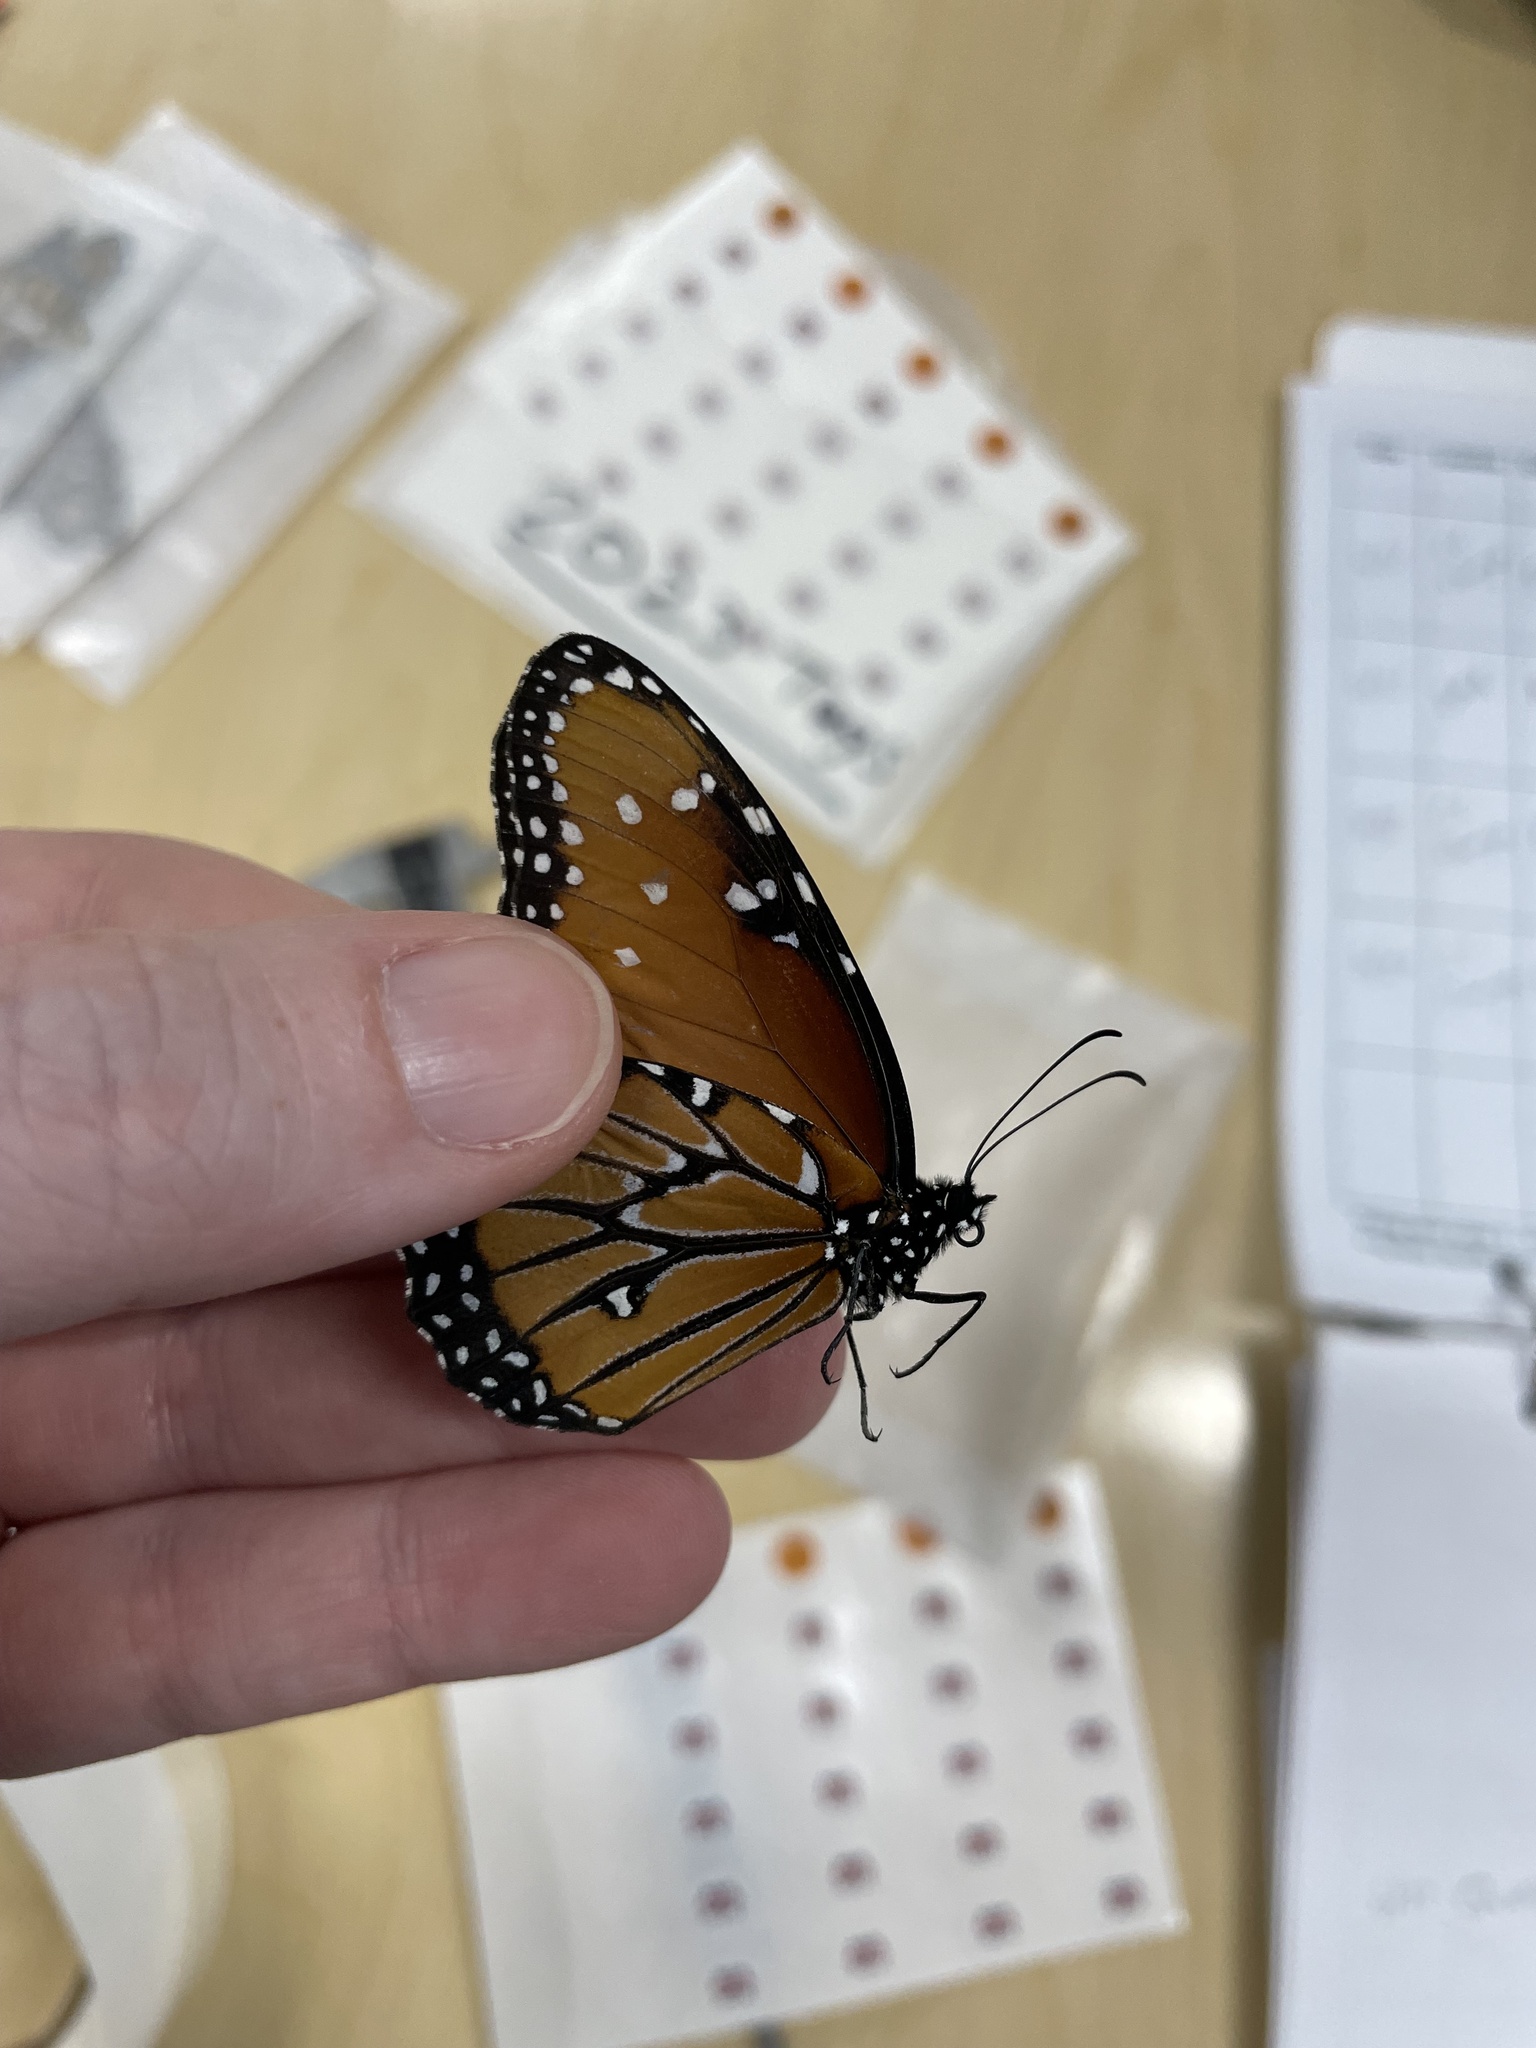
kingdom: Animalia
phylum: Arthropoda
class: Insecta
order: Lepidoptera
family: Nymphalidae
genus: Danaus
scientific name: Danaus gilippus
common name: Queen
